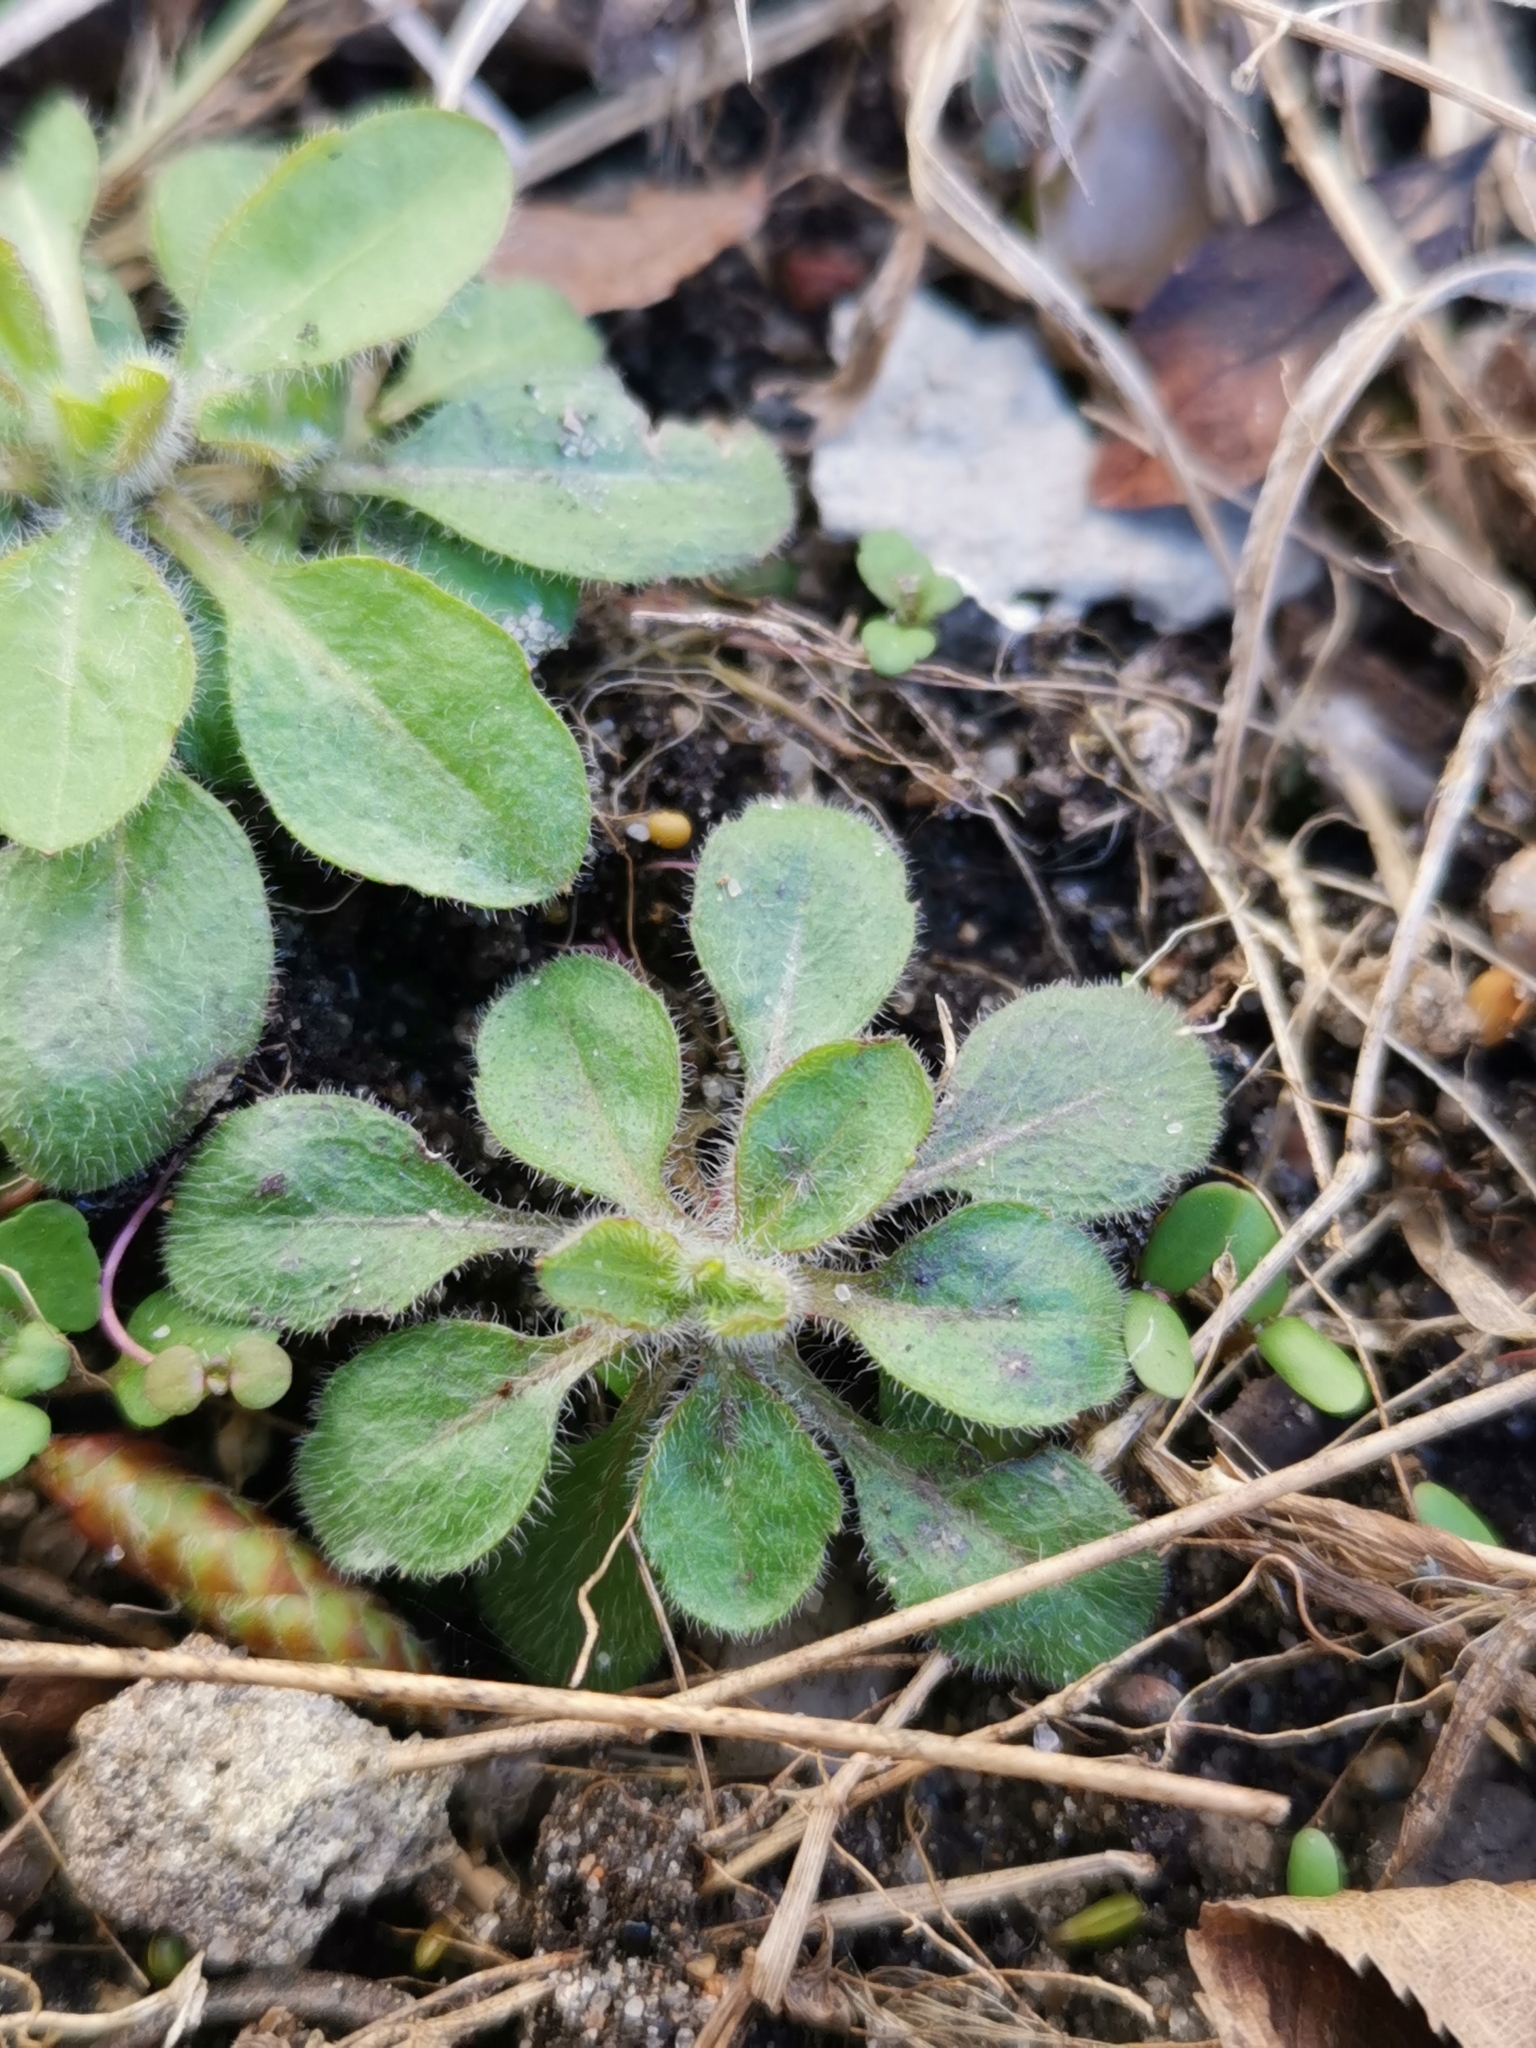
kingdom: Plantae
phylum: Tracheophyta
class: Magnoliopsida
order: Brassicales
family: Brassicaceae
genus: Arabidopsis
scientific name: Arabidopsis thaliana
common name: Thale cress
